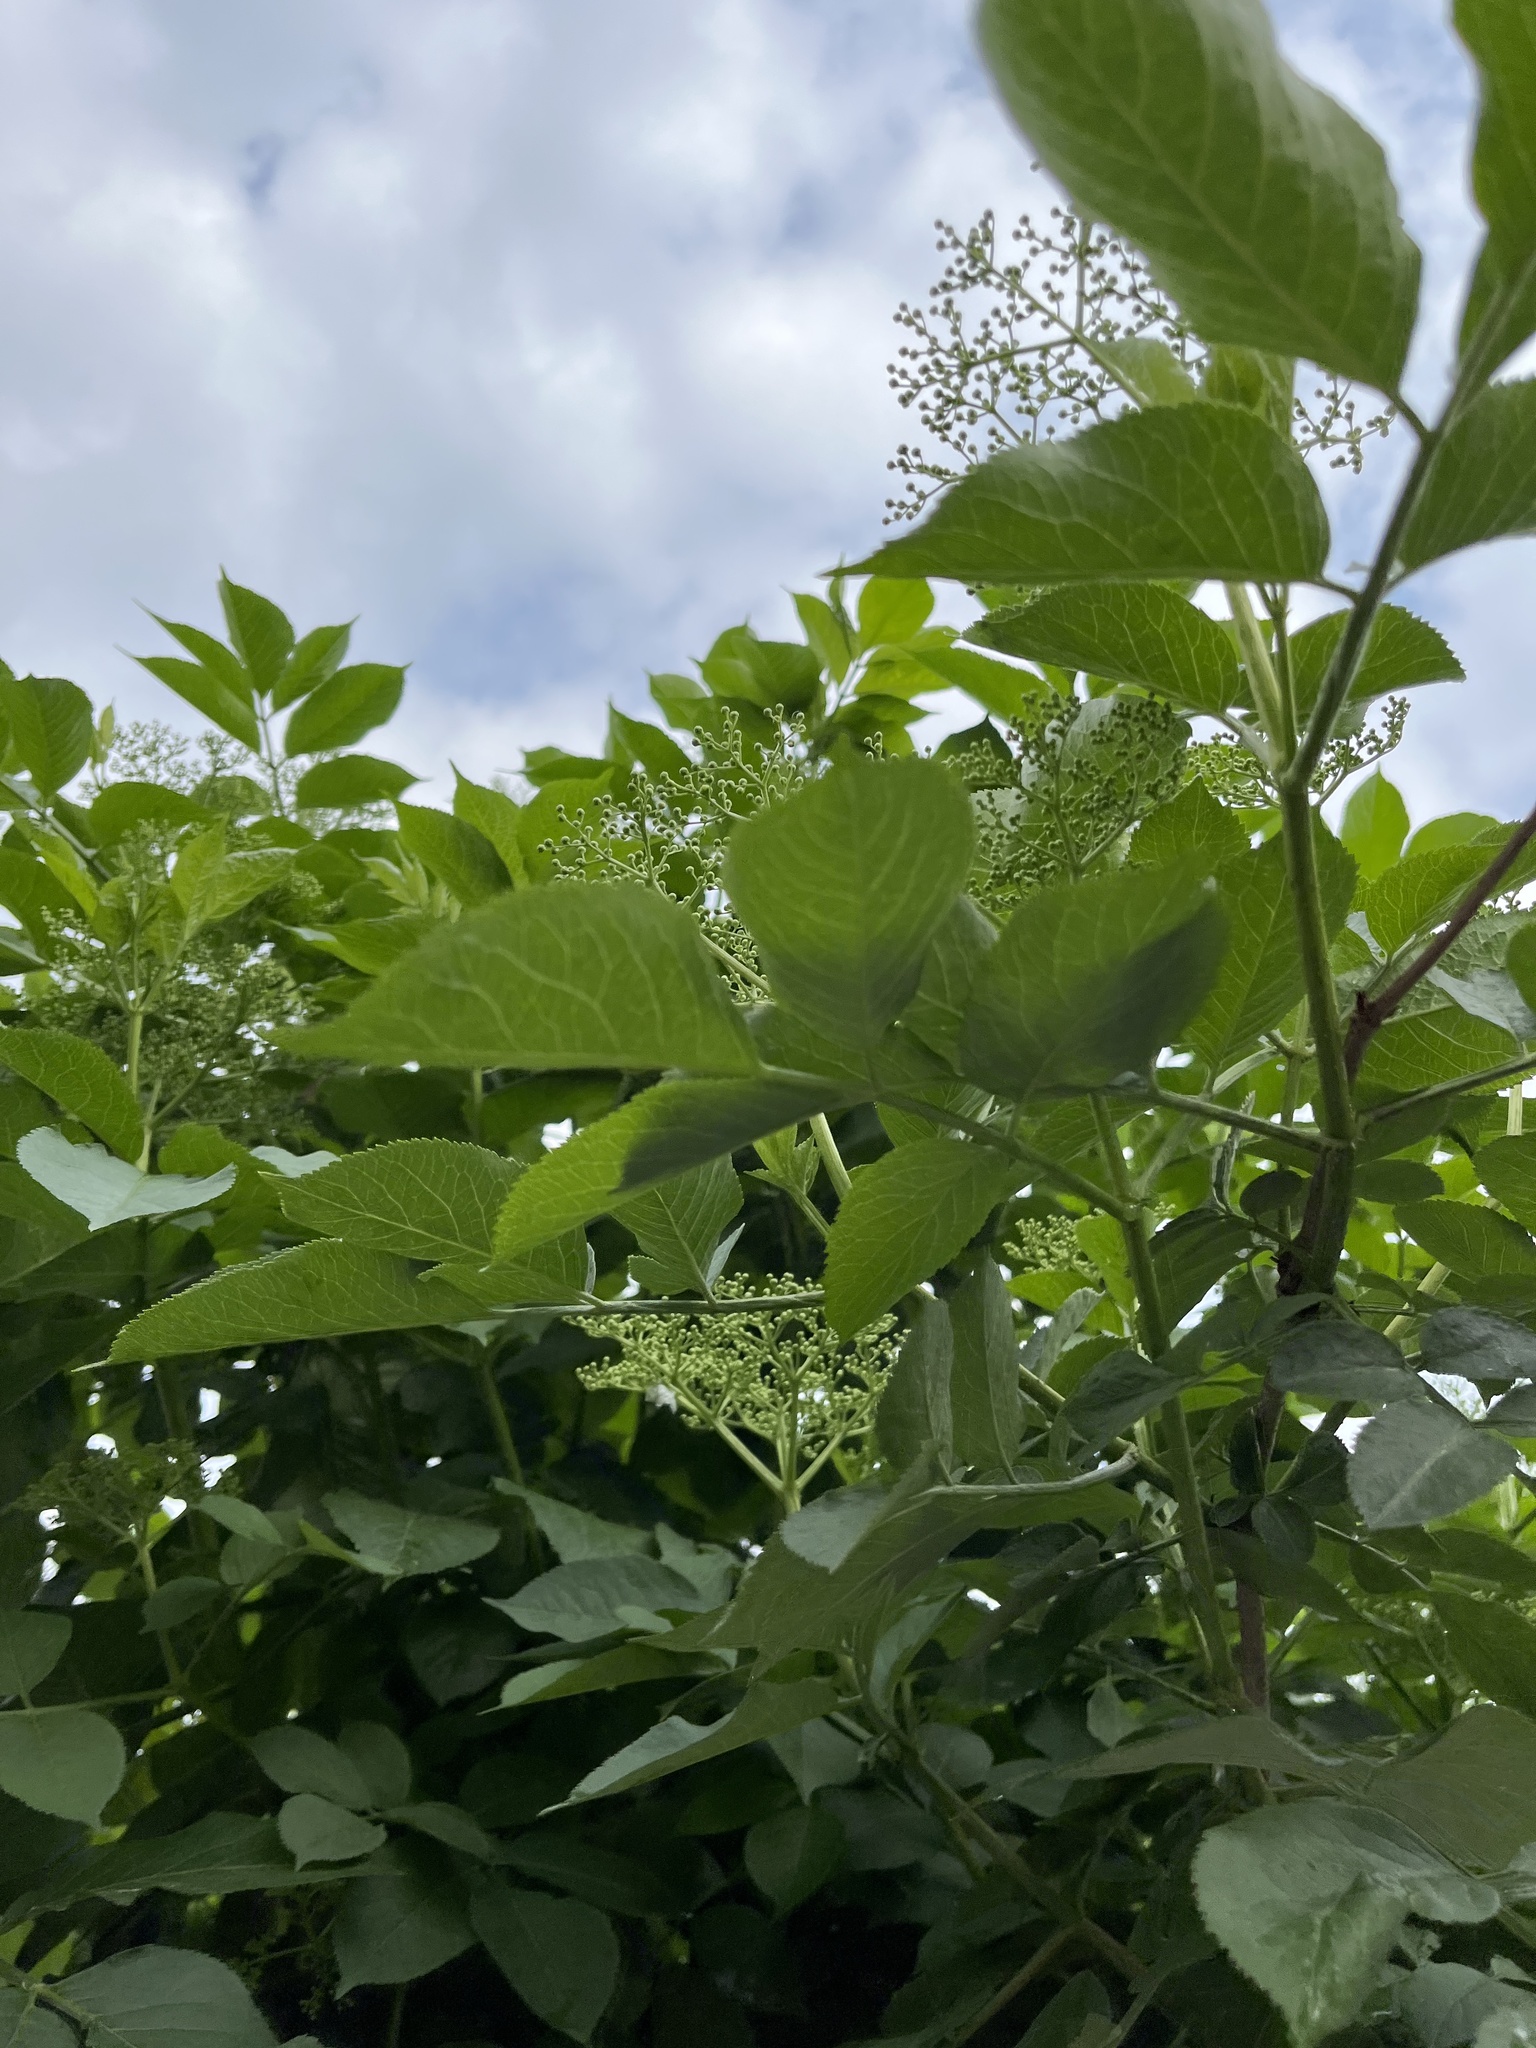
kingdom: Plantae
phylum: Tracheophyta
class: Magnoliopsida
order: Dipsacales
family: Viburnaceae
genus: Sambucus
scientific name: Sambucus nigra
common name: Elder
